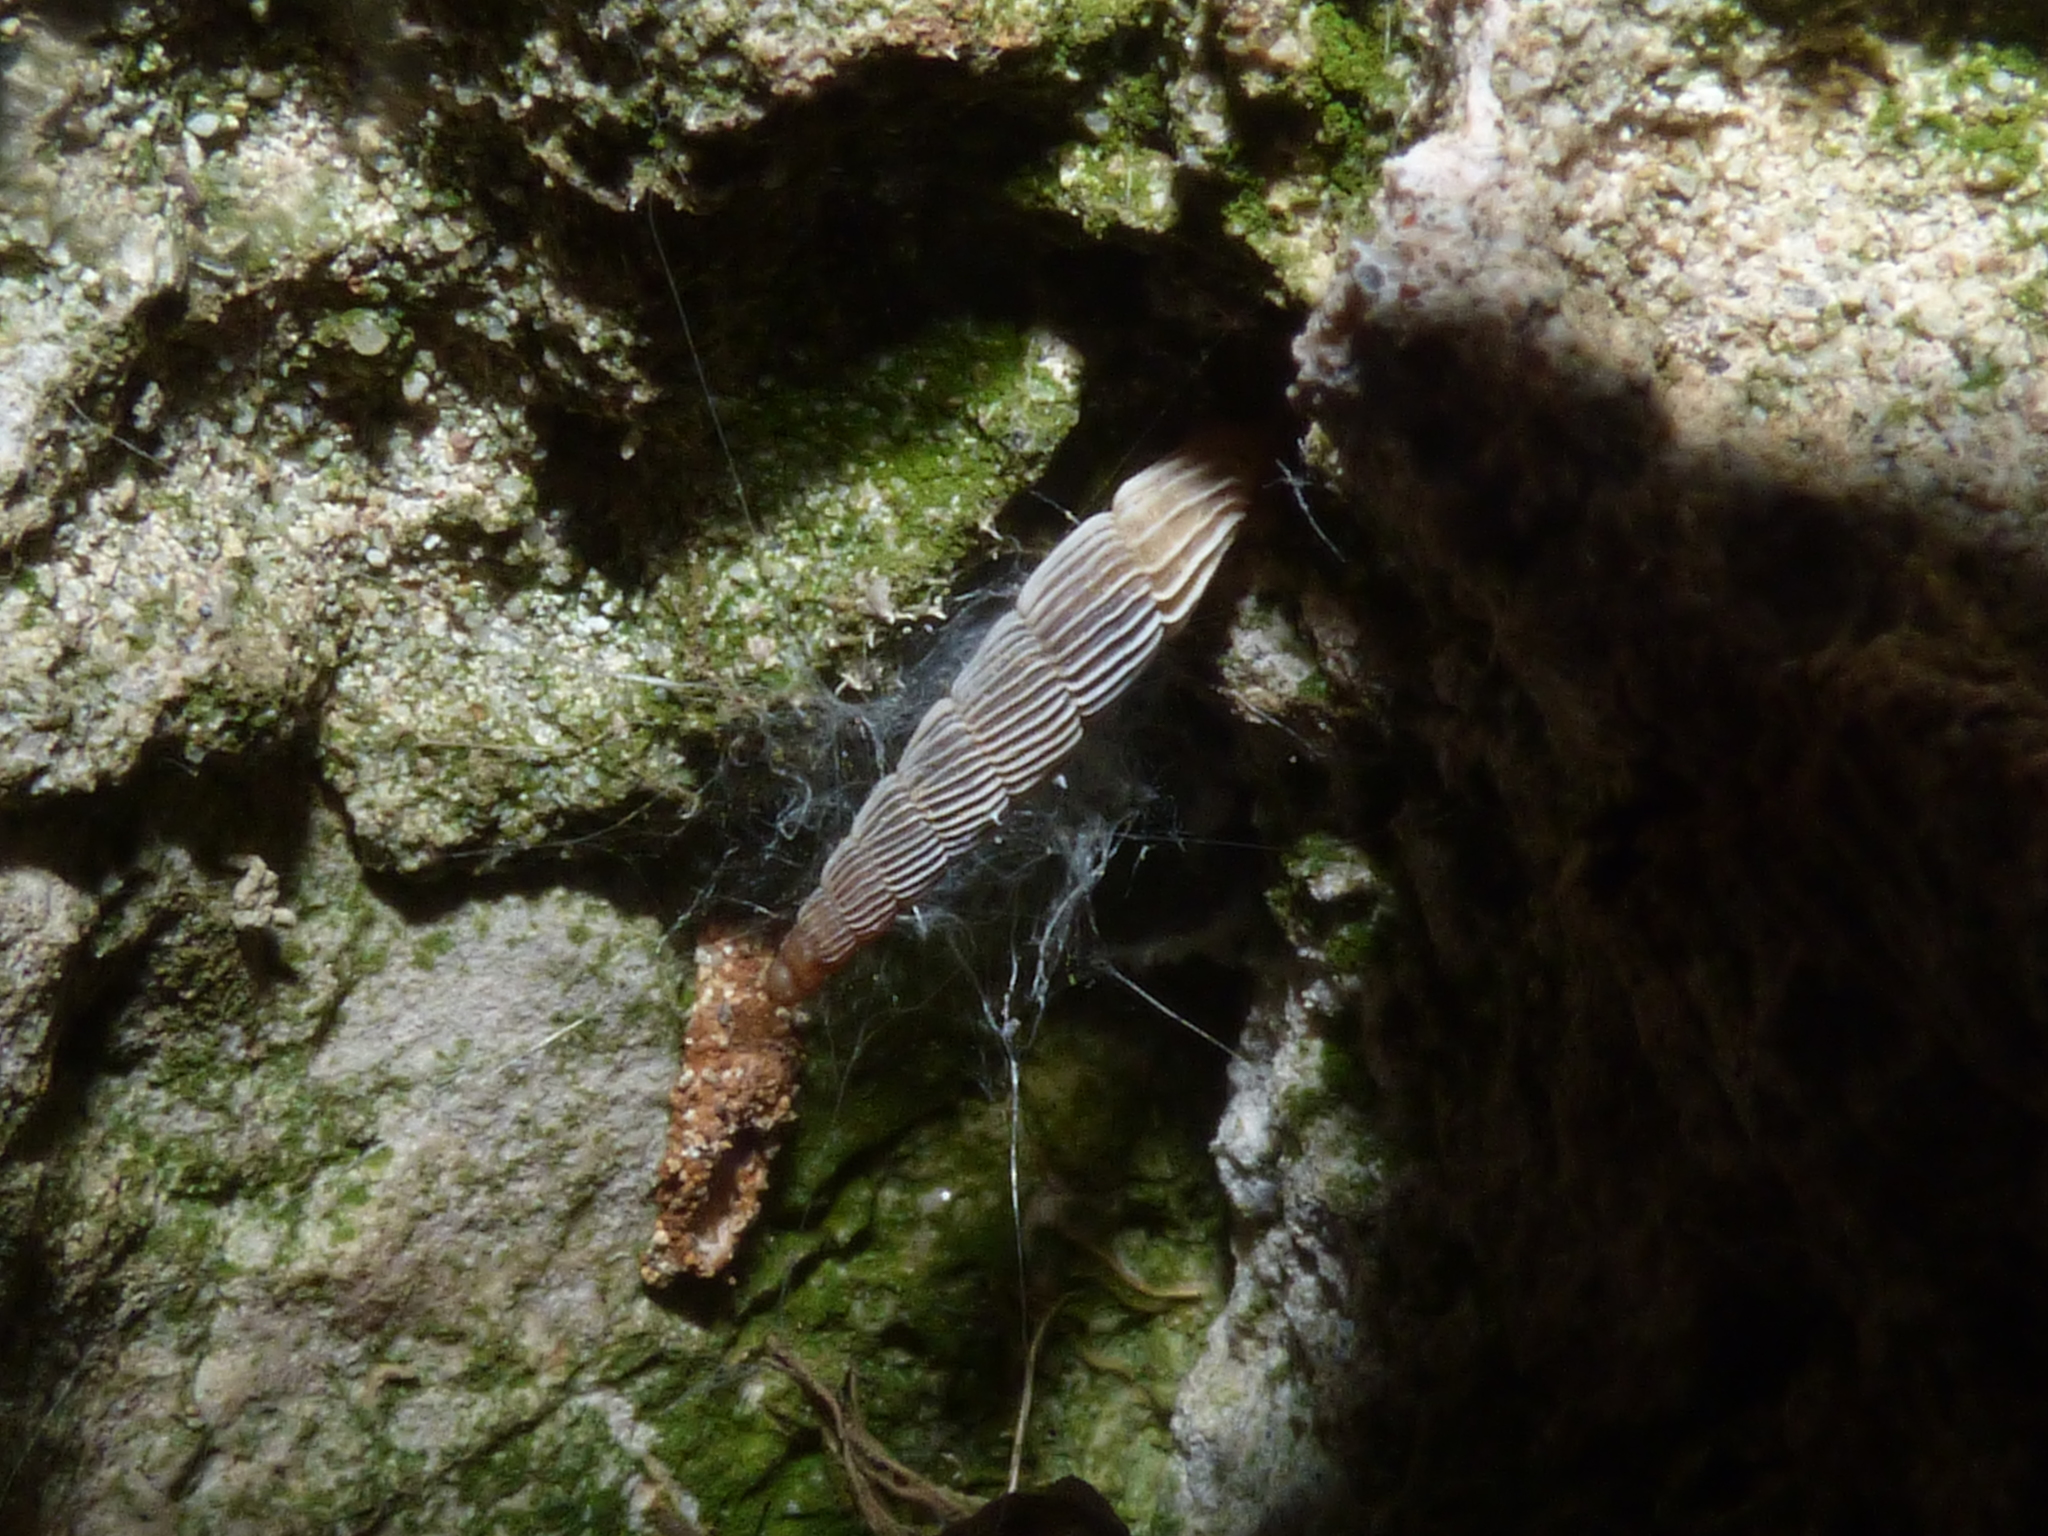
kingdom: Animalia
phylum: Mollusca
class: Gastropoda
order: Stylommatophora
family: Clausiliidae
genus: Agathylla
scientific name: Agathylla lamellosa
